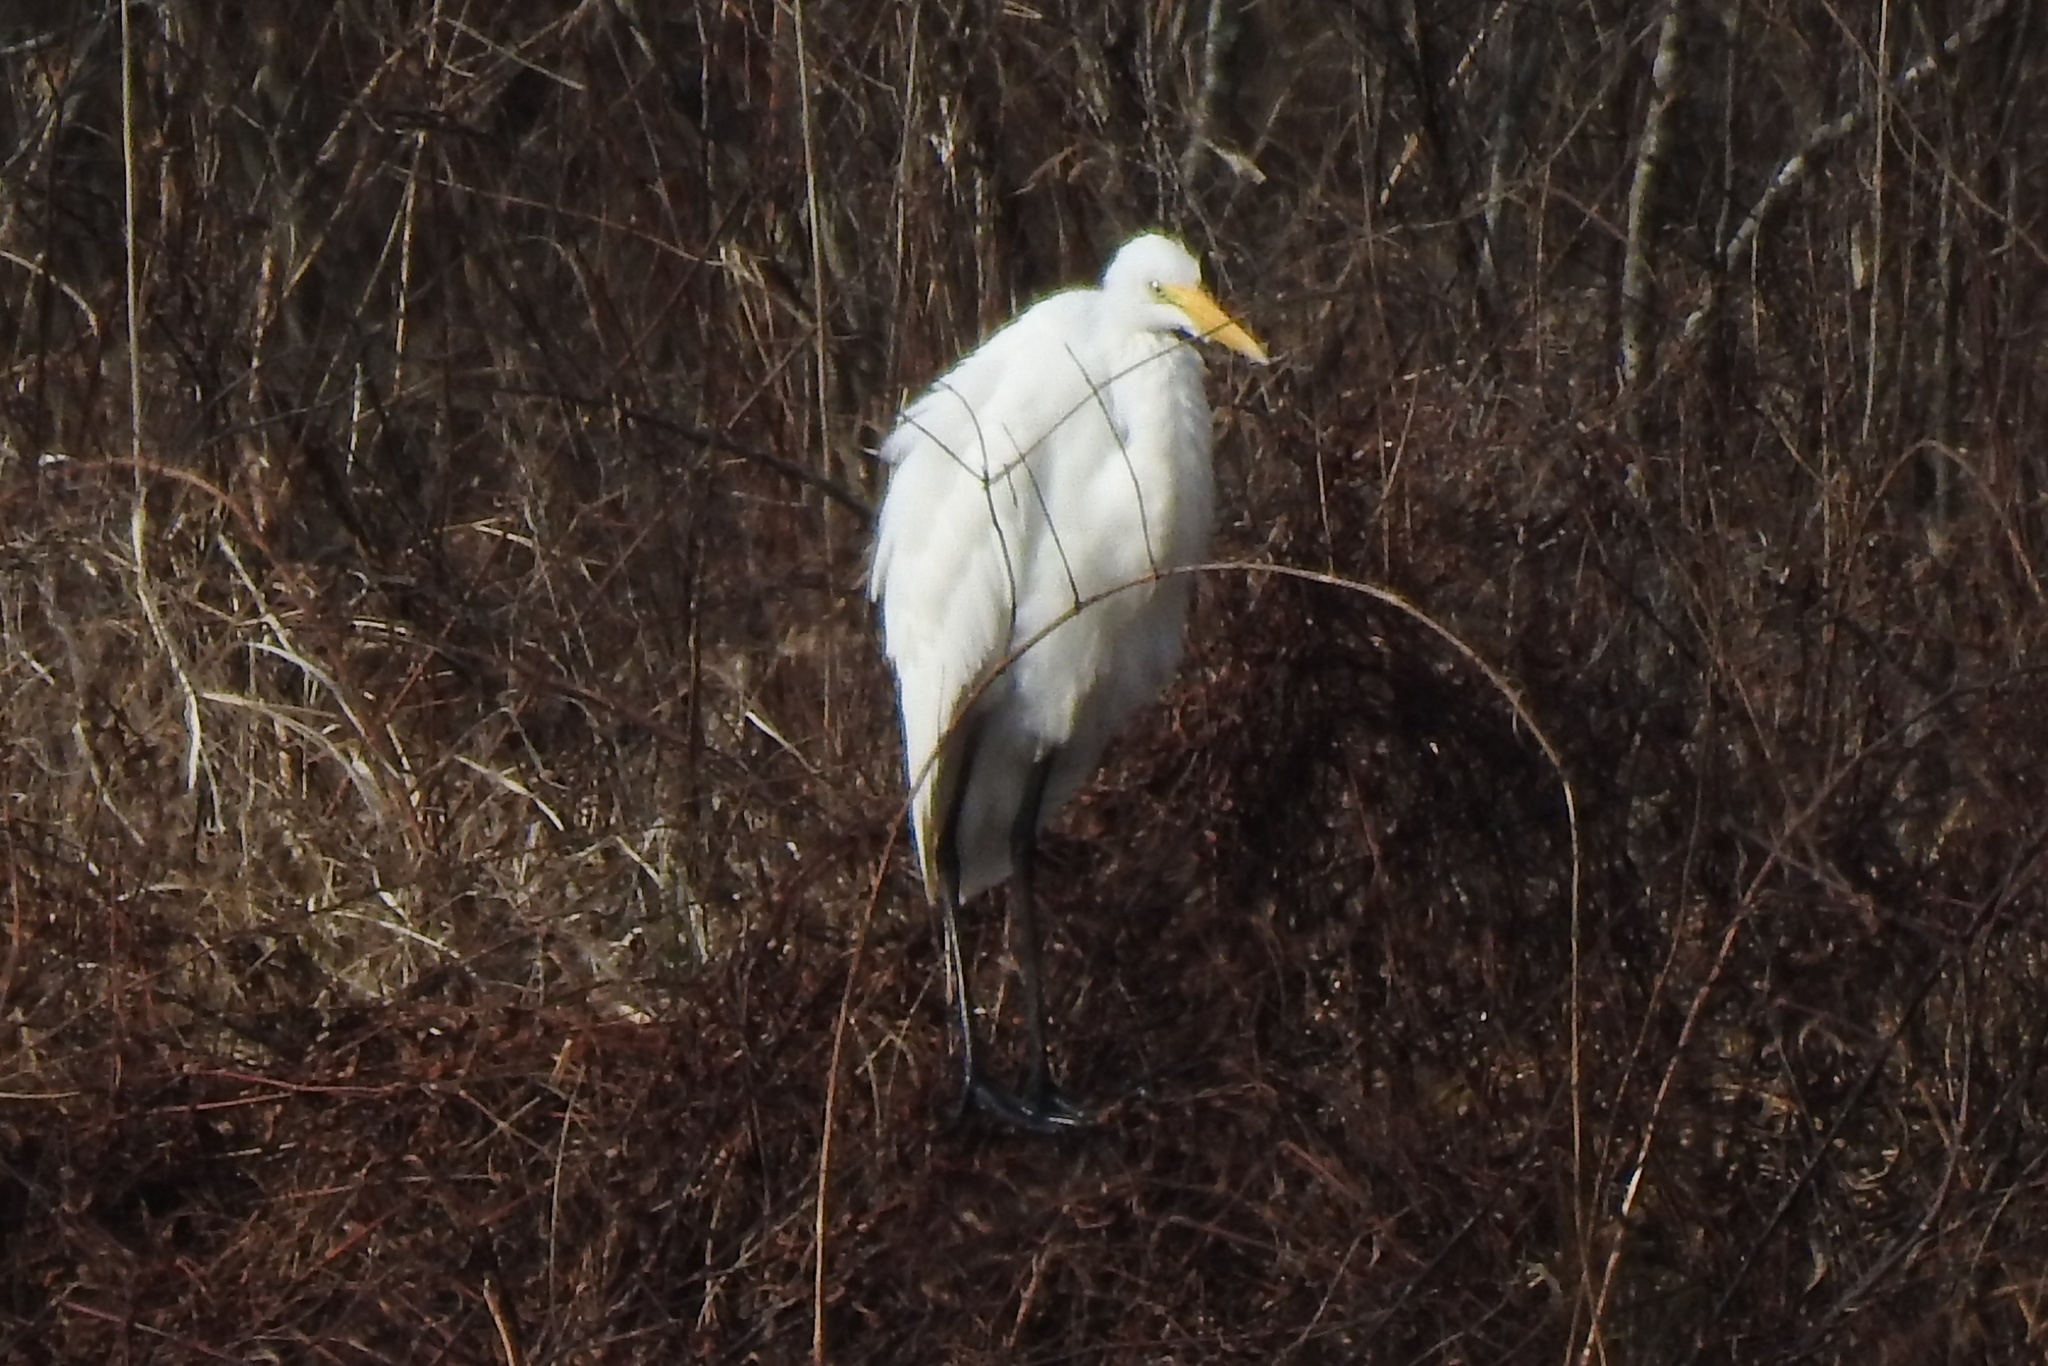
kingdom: Animalia
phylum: Chordata
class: Aves
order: Pelecaniformes
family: Ardeidae
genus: Ardea
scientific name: Ardea alba
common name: Great egret
